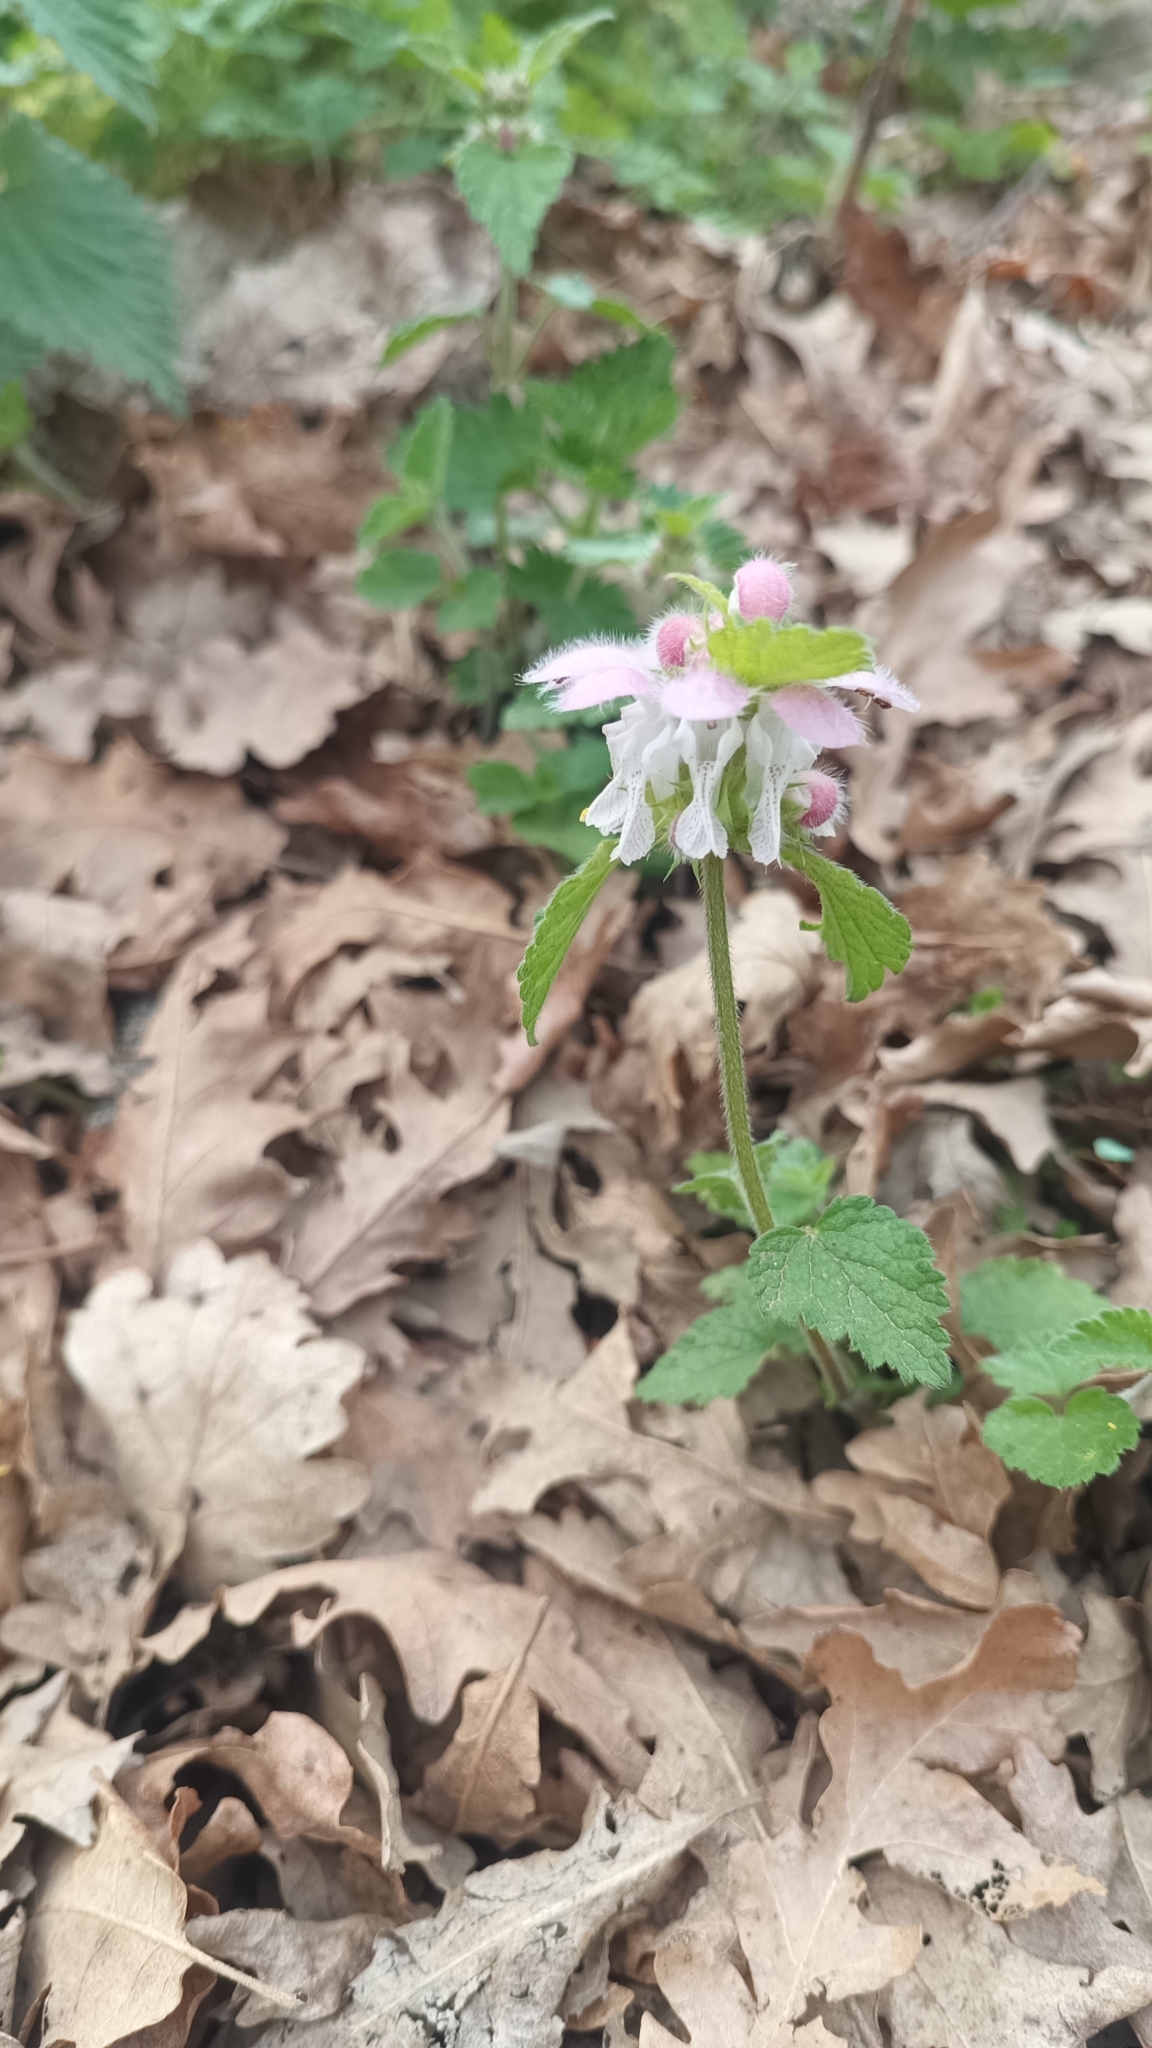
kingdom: Plantae
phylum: Tracheophyta
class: Magnoliopsida
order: Lamiales
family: Lamiaceae
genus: Lamium
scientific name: Lamium flexuosum
